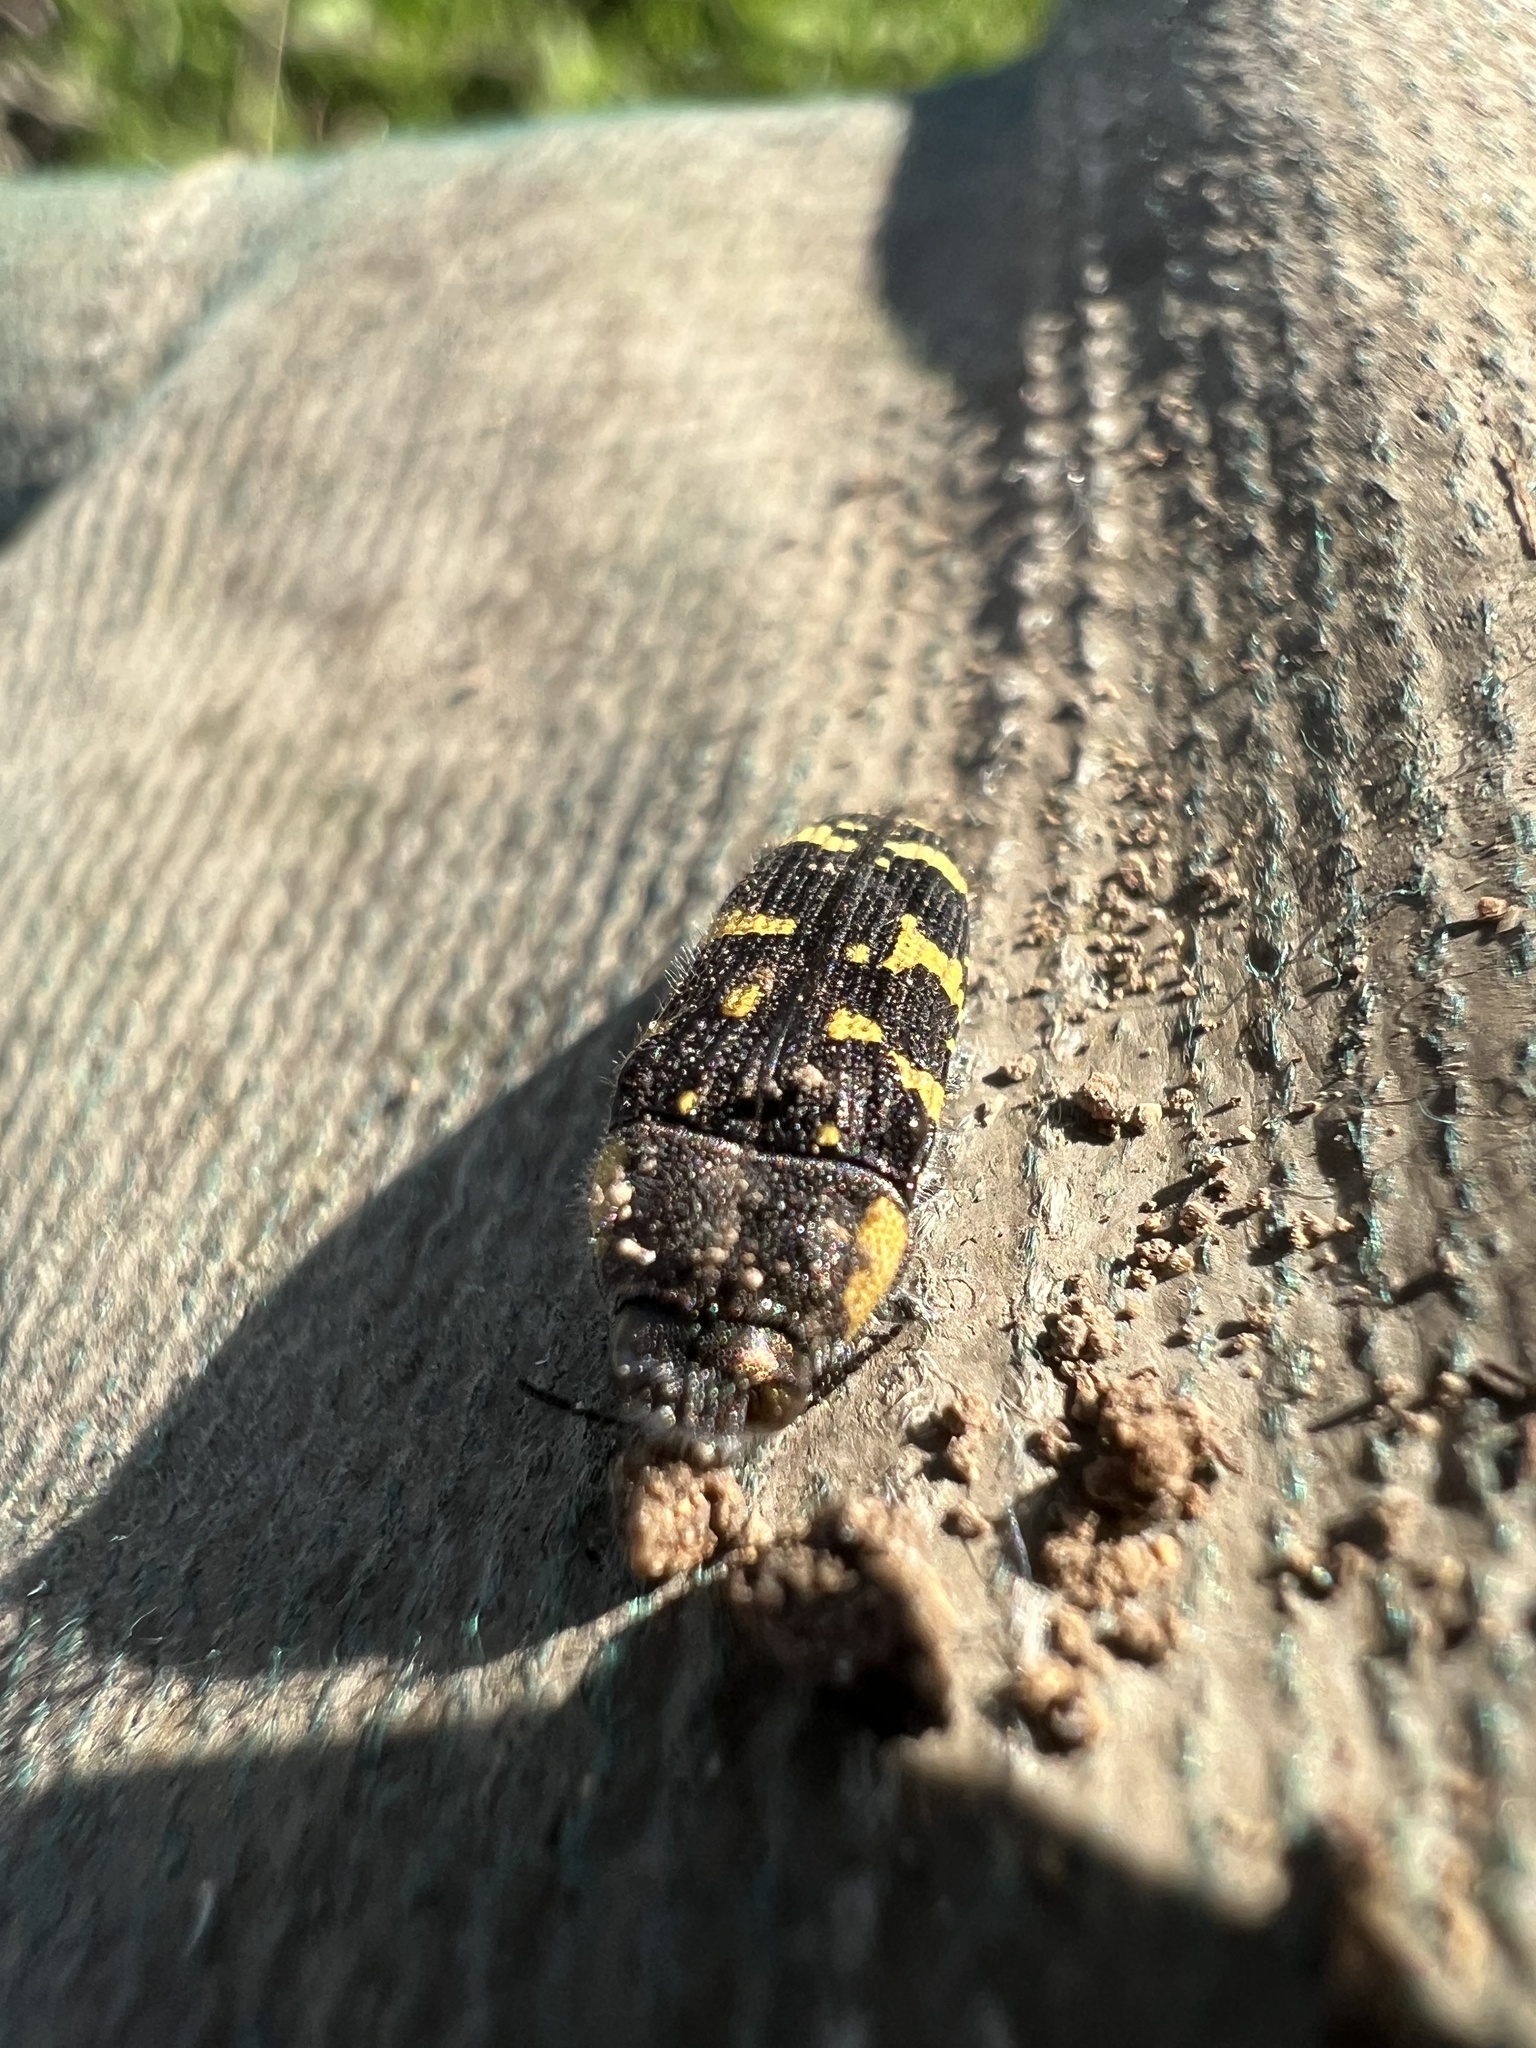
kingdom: Animalia
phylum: Arthropoda
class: Insecta
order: Coleoptera
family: Buprestidae
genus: Acmaeodera
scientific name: Acmaeodera macra
